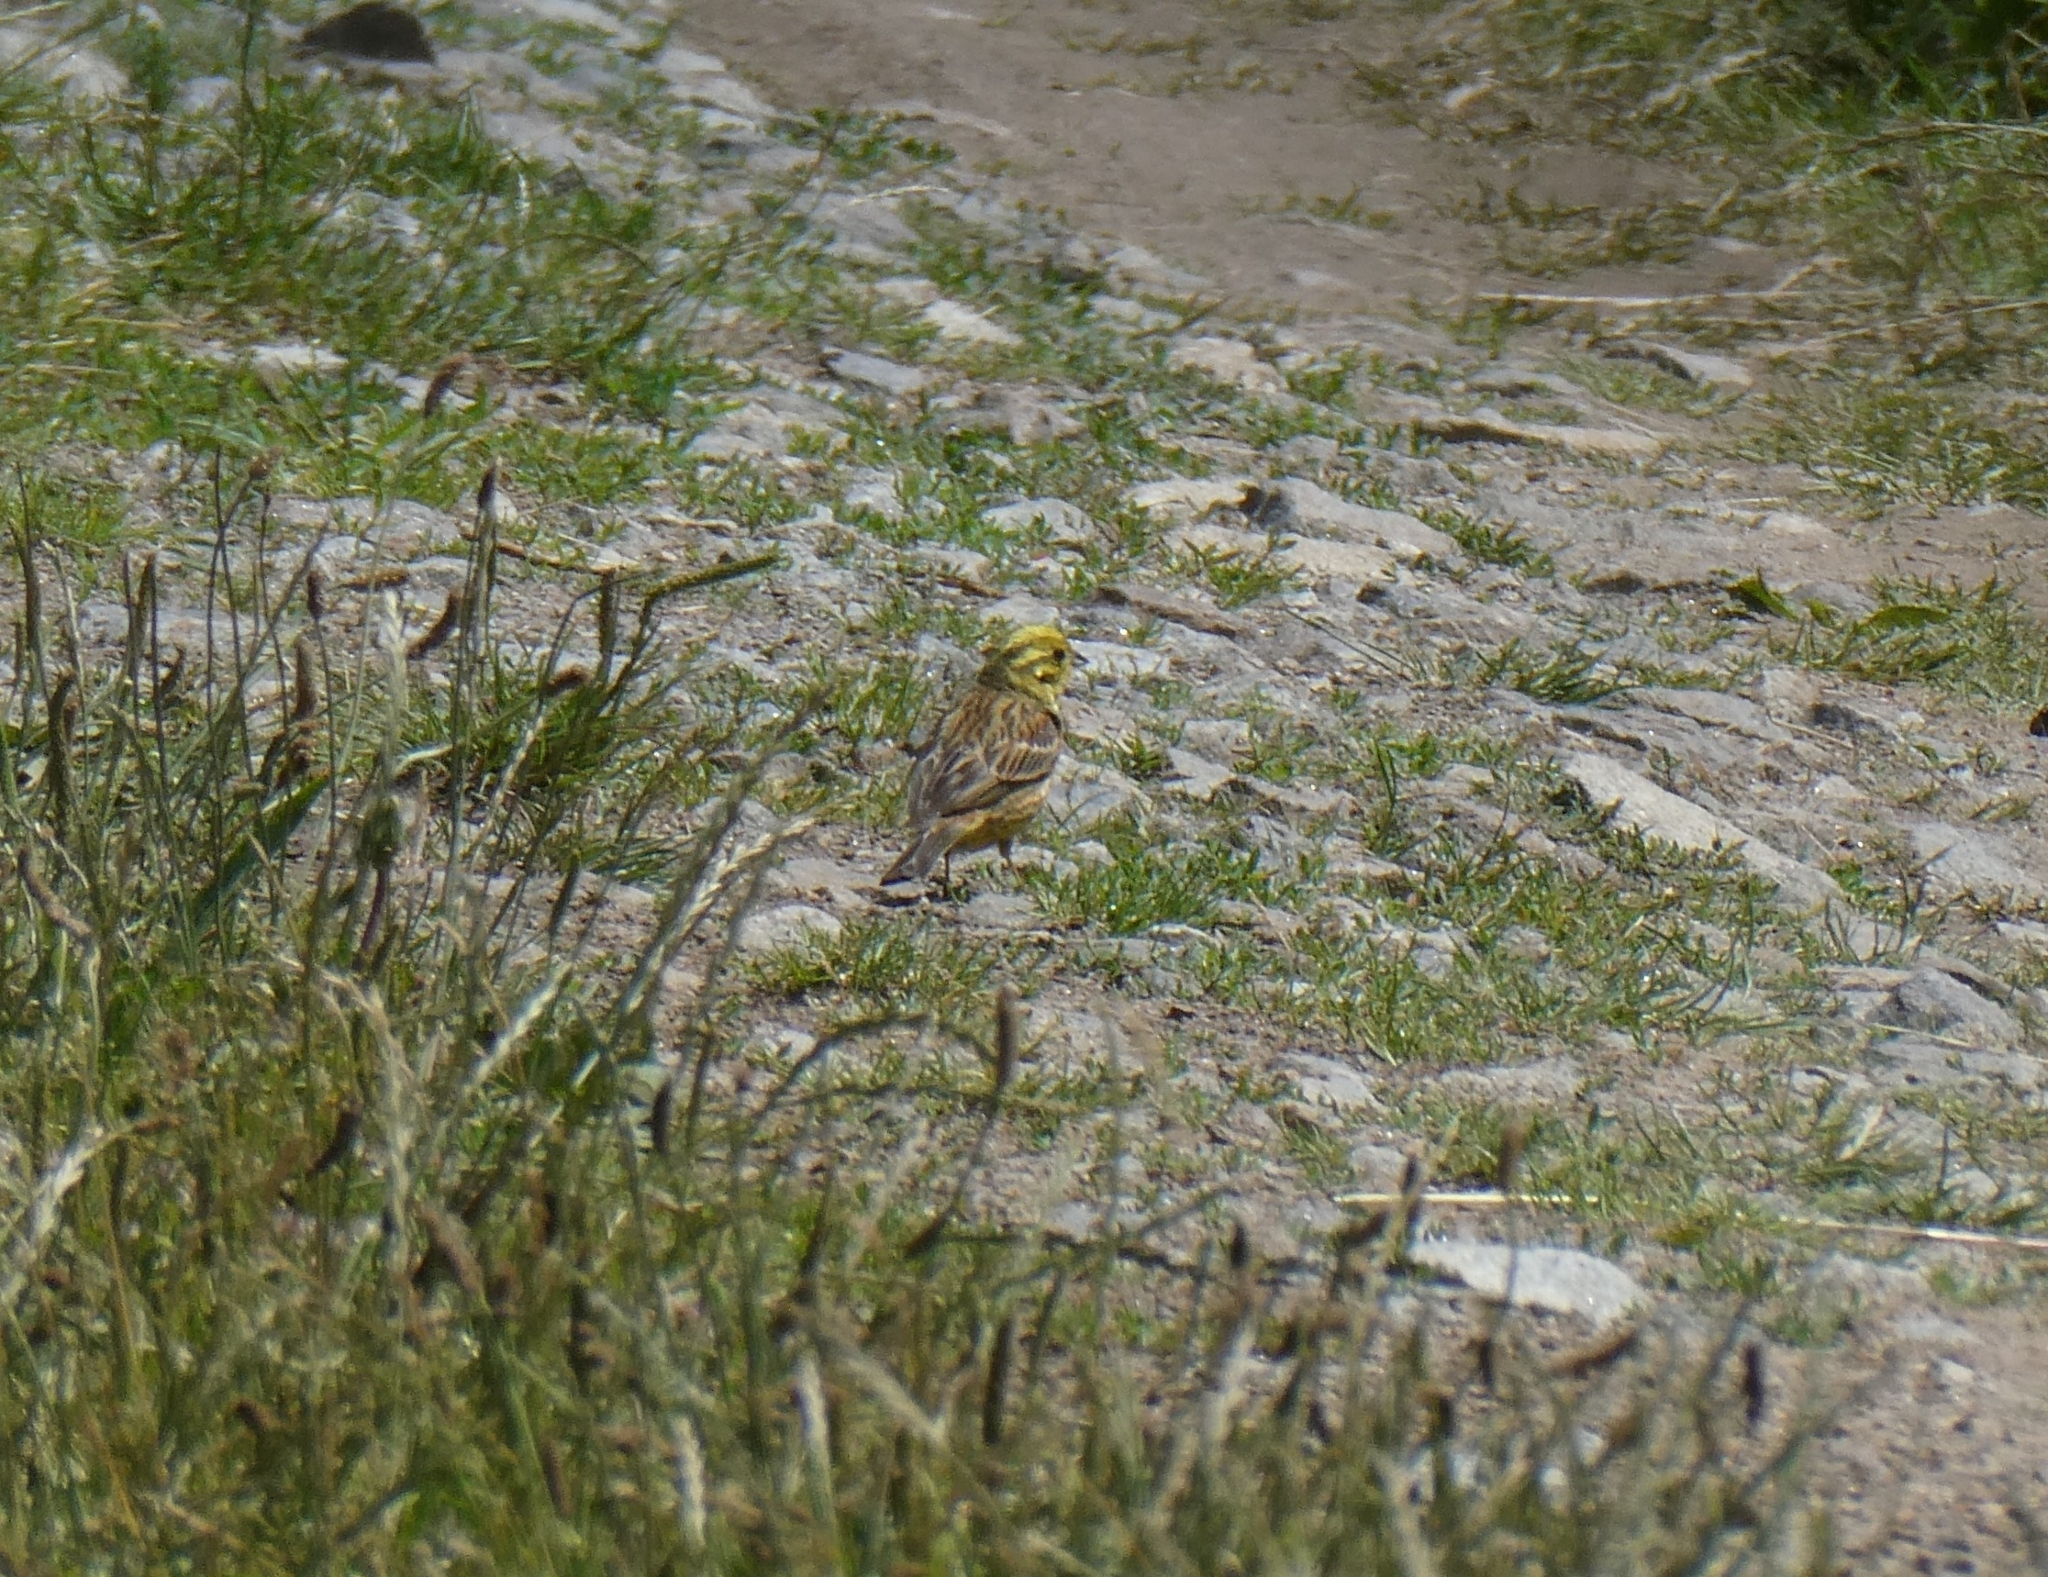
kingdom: Animalia
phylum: Chordata
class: Aves
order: Passeriformes
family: Emberizidae
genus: Emberiza
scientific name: Emberiza citrinella
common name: Yellowhammer
